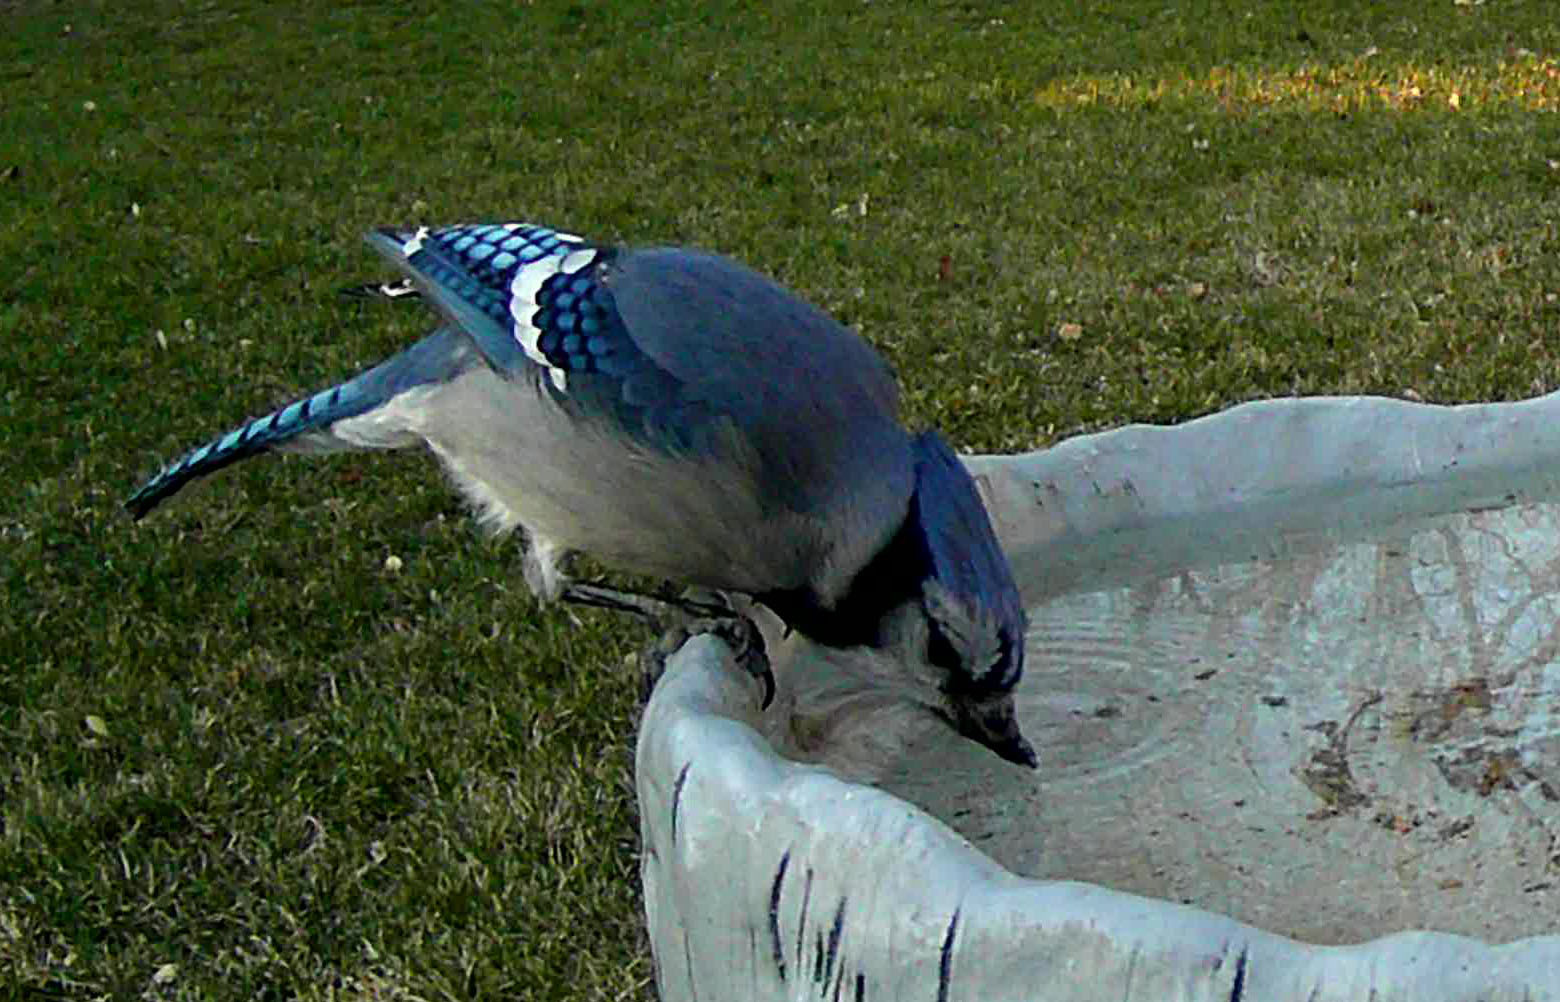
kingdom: Animalia
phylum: Chordata
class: Aves
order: Passeriformes
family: Corvidae
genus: Cyanocitta
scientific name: Cyanocitta cristata
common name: Blue jay
